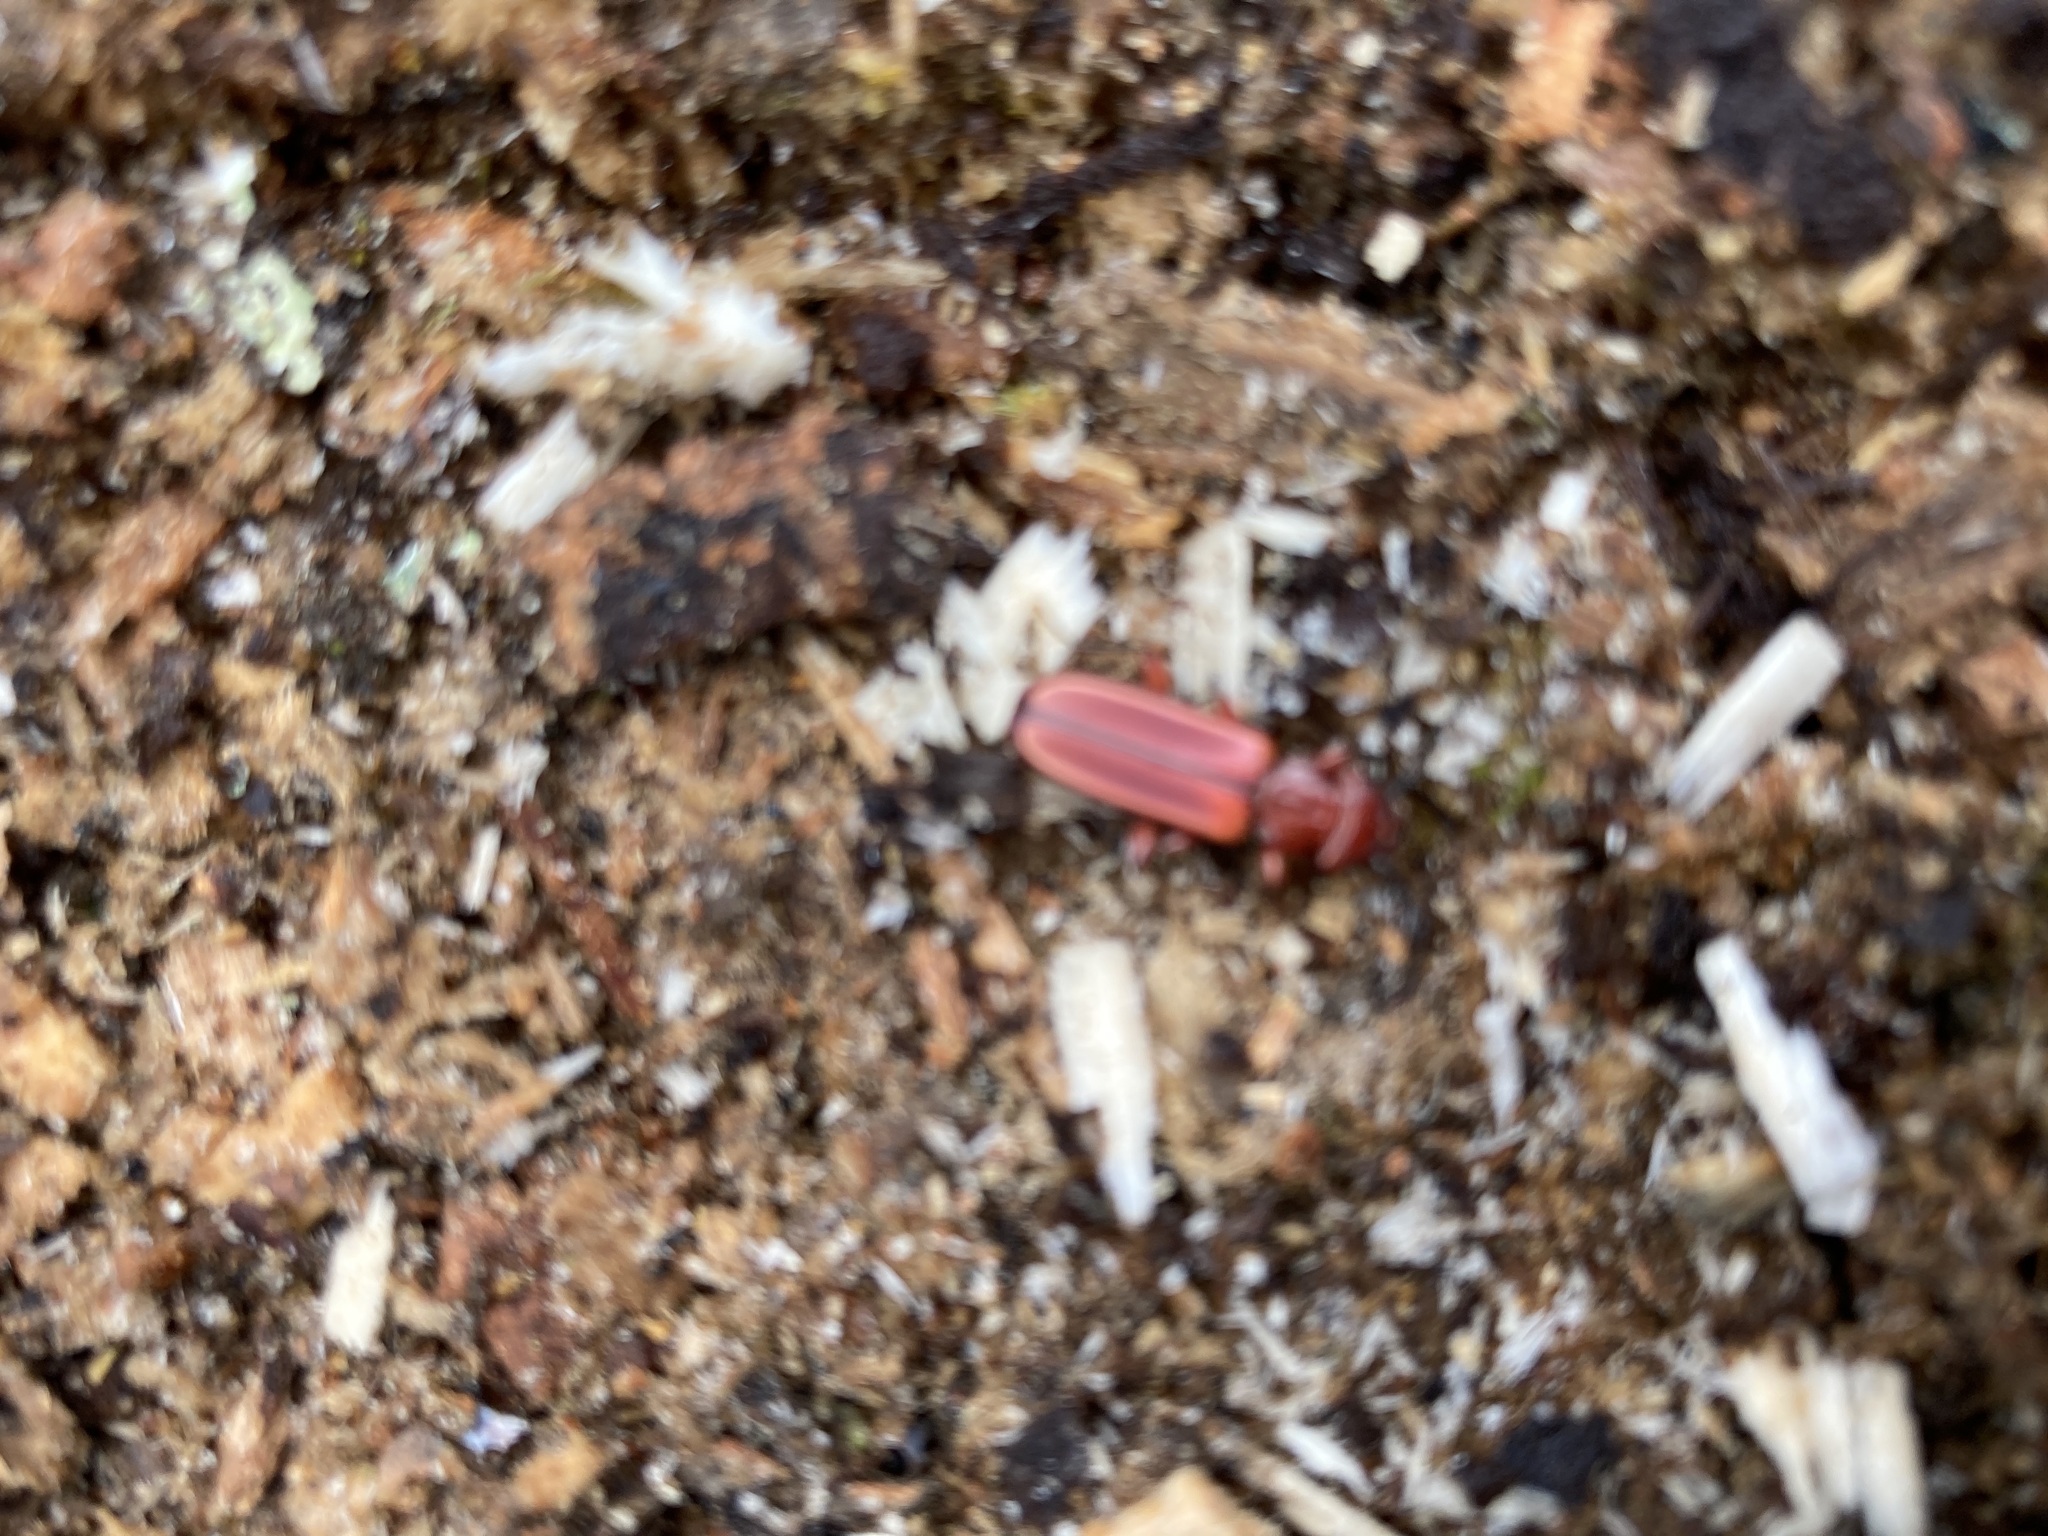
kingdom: Animalia
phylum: Arthropoda
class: Insecta
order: Coleoptera
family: Cucujidae
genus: Cucujus
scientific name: Cucujus clavipes
